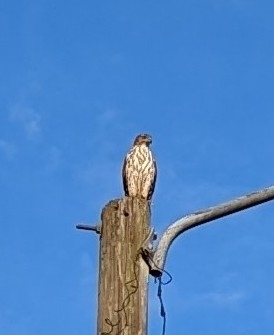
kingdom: Animalia
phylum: Chordata
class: Aves
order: Accipitriformes
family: Accipitridae
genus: Accipiter
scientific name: Accipiter cooperii
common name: Cooper's hawk
